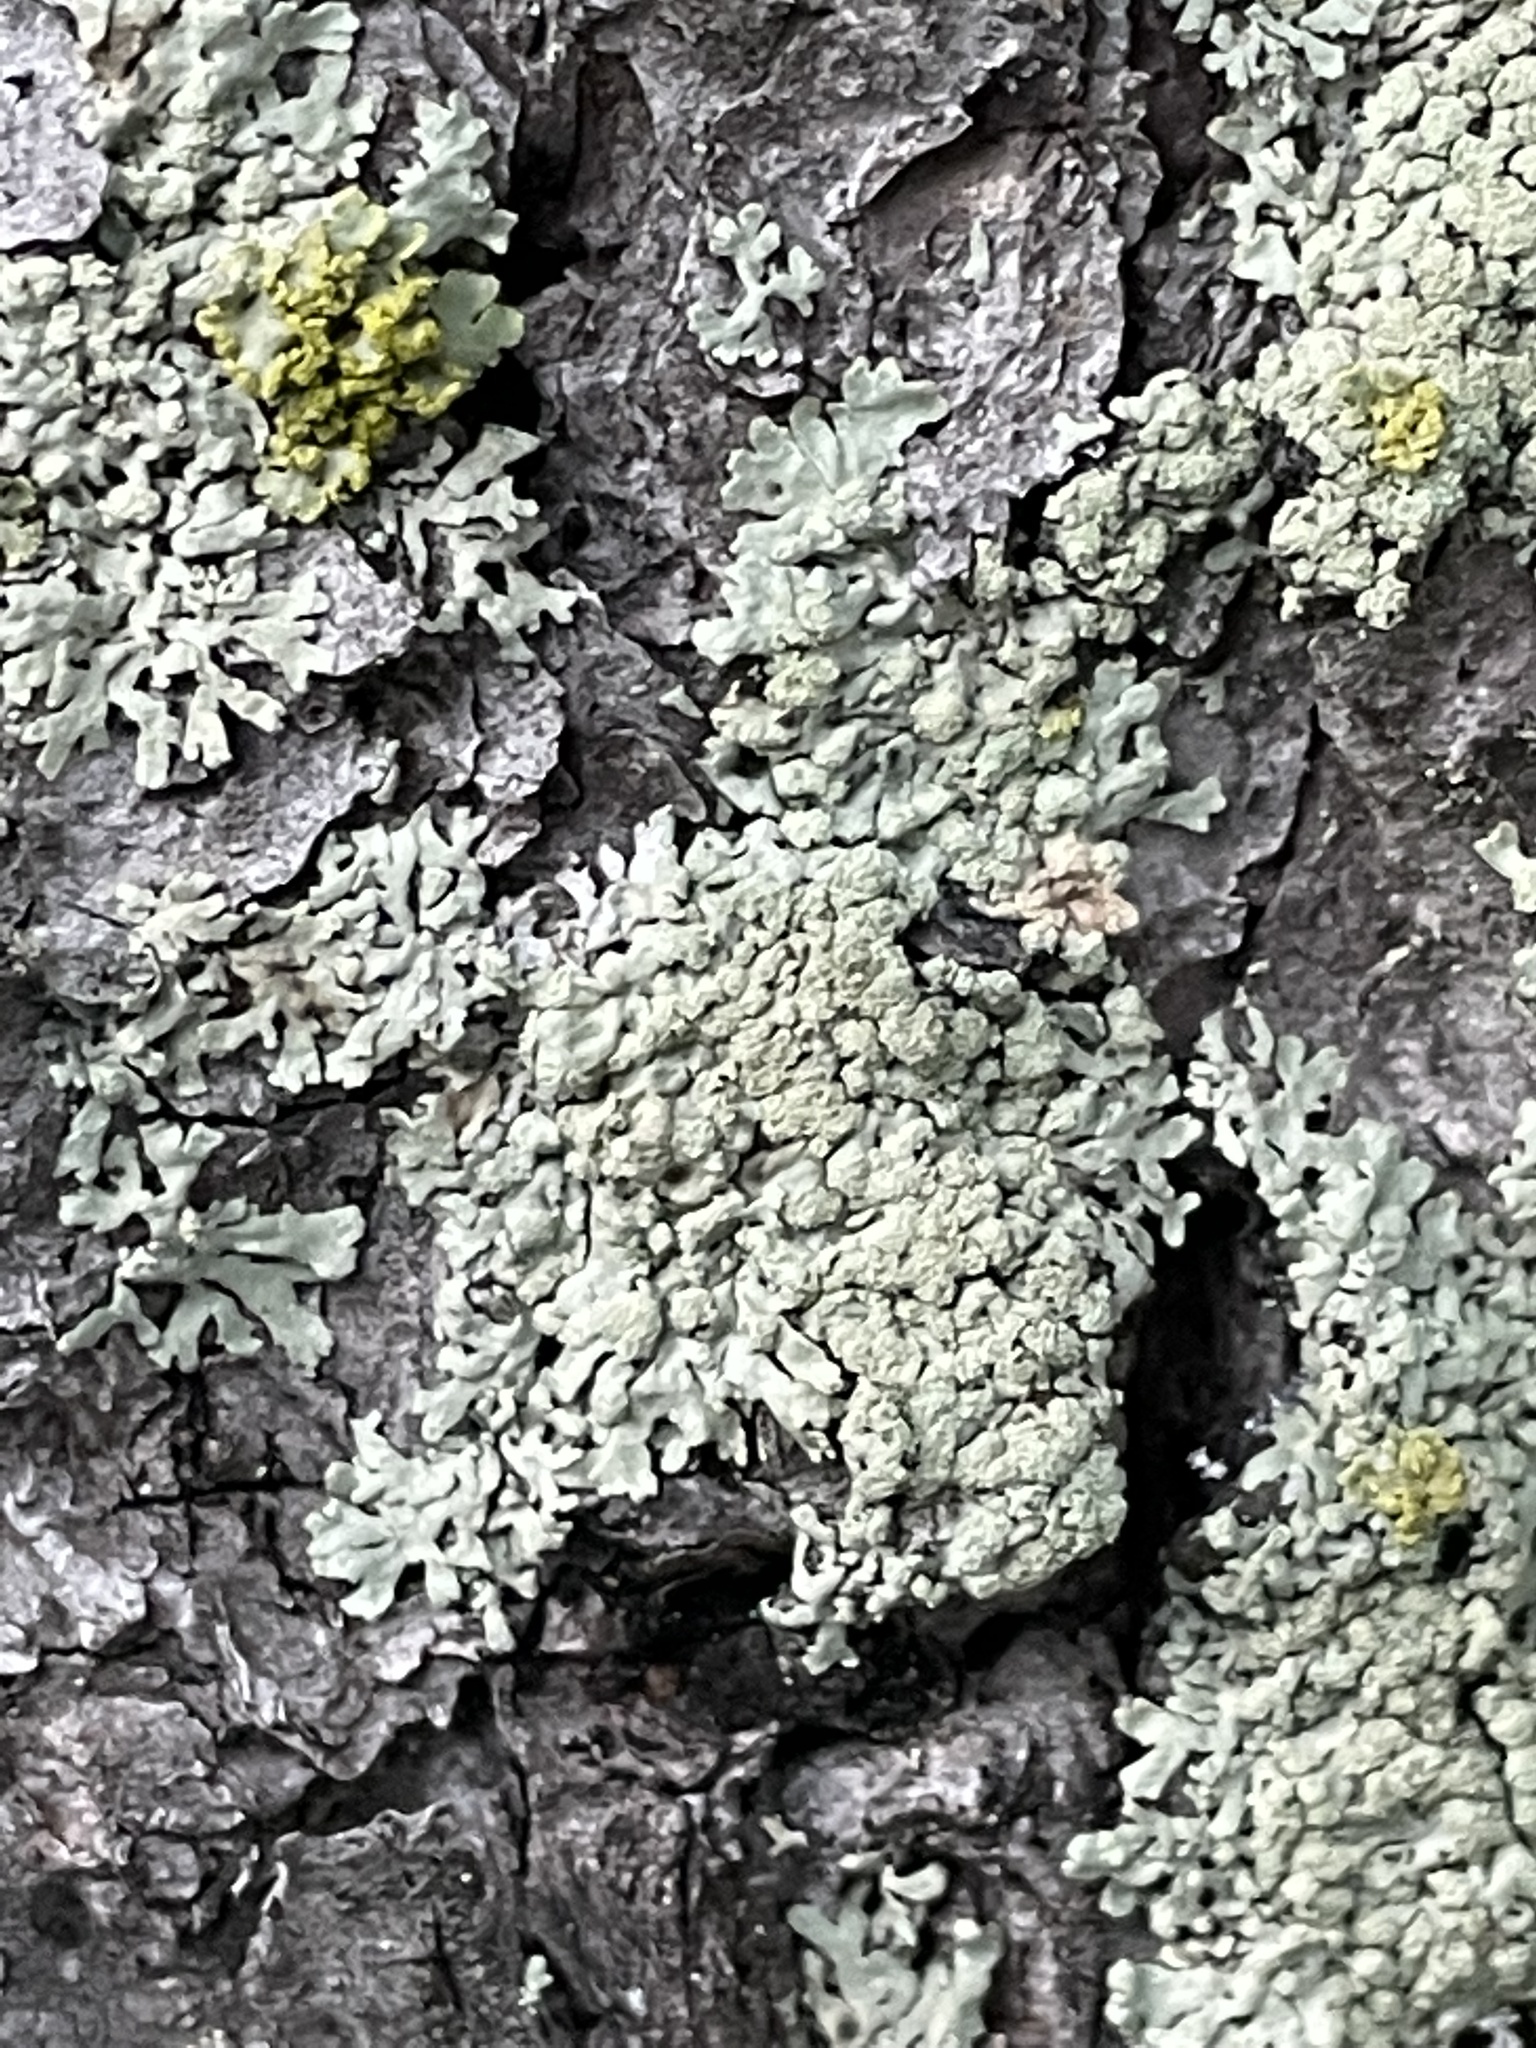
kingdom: Fungi
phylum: Ascomycota
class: Lecanoromycetes
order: Lecanorales
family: Parmeliaceae
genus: Parmeliopsis
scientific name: Parmeliopsis ambigua
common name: Green starburst lichen
